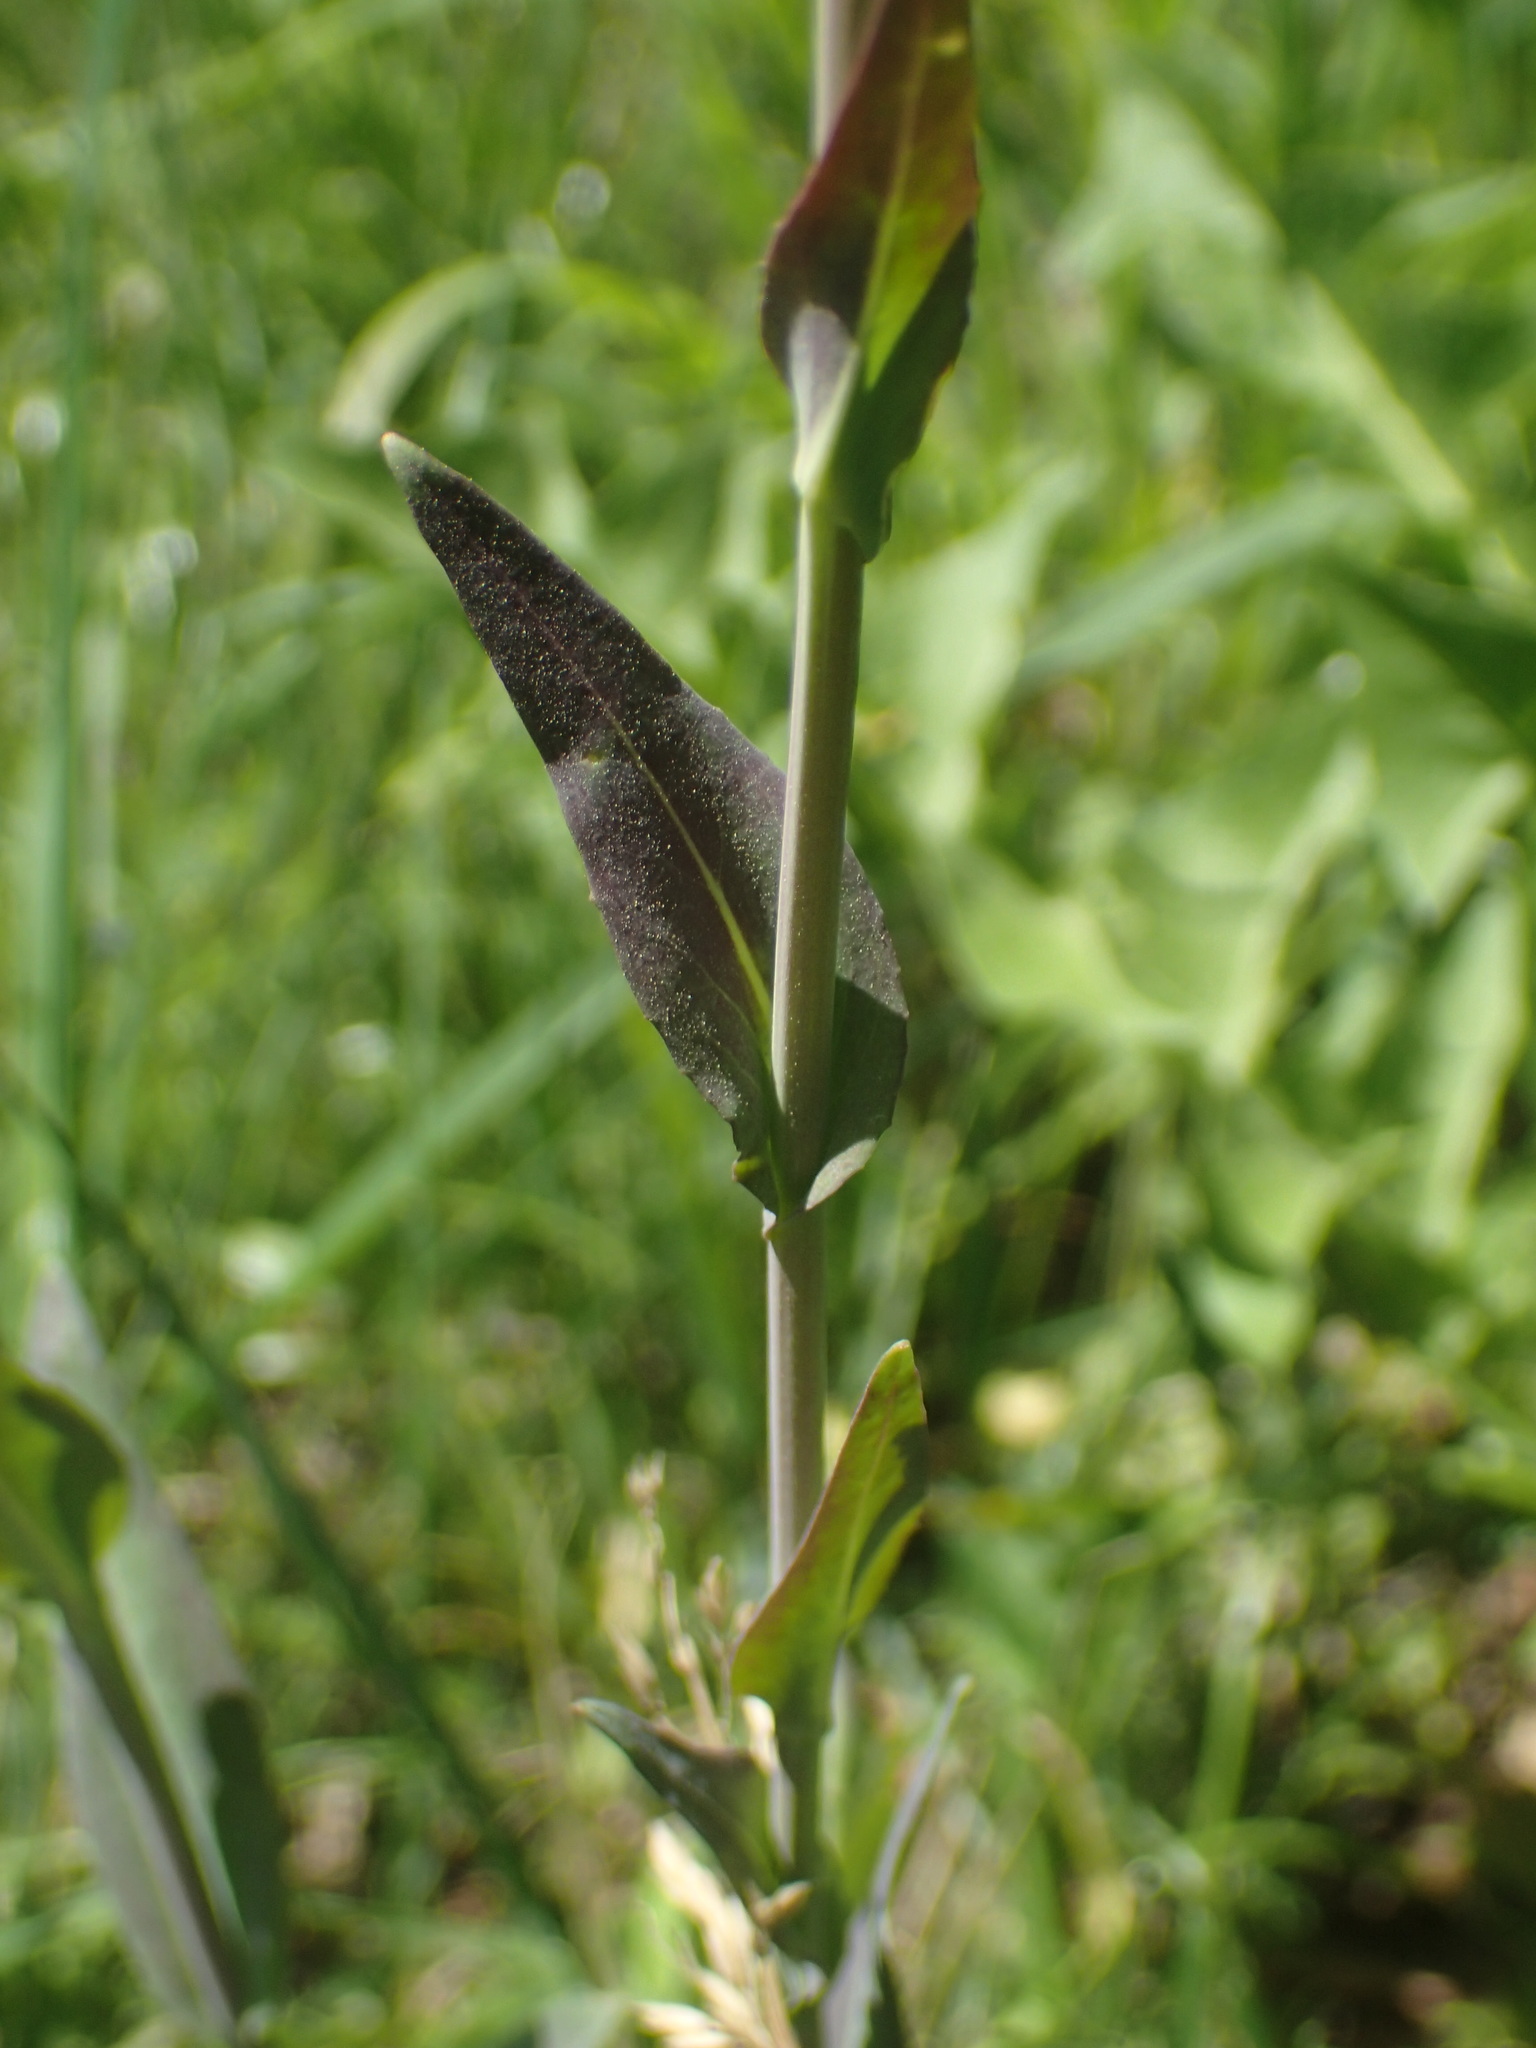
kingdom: Plantae
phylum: Tracheophyta
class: Magnoliopsida
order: Brassicales
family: Brassicaceae
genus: Turritis
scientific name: Turritis glabra
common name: Tower rockcress
